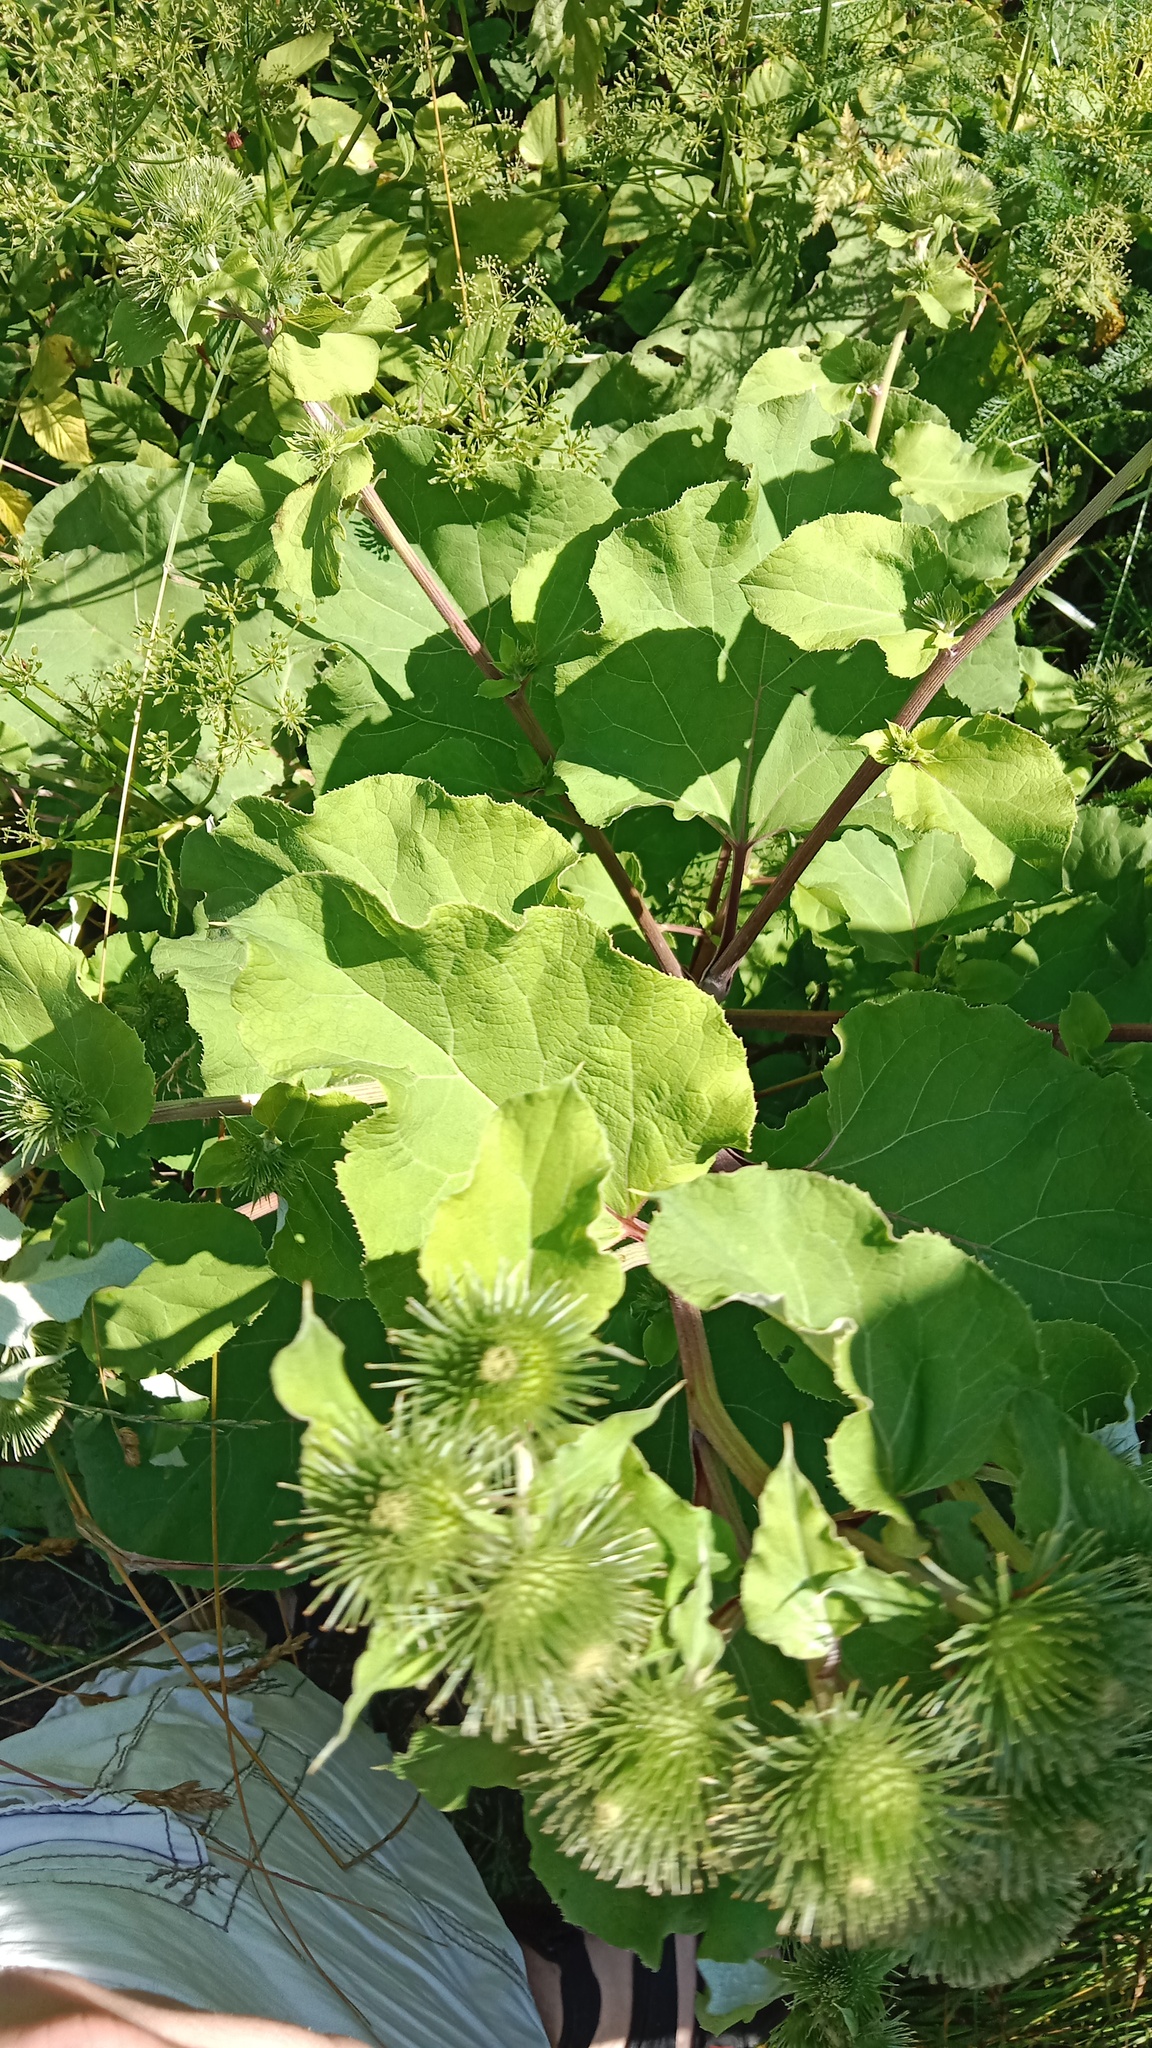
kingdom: Plantae
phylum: Tracheophyta
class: Magnoliopsida
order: Asterales
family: Asteraceae
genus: Arctium
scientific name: Arctium lappa
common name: Greater burdock
